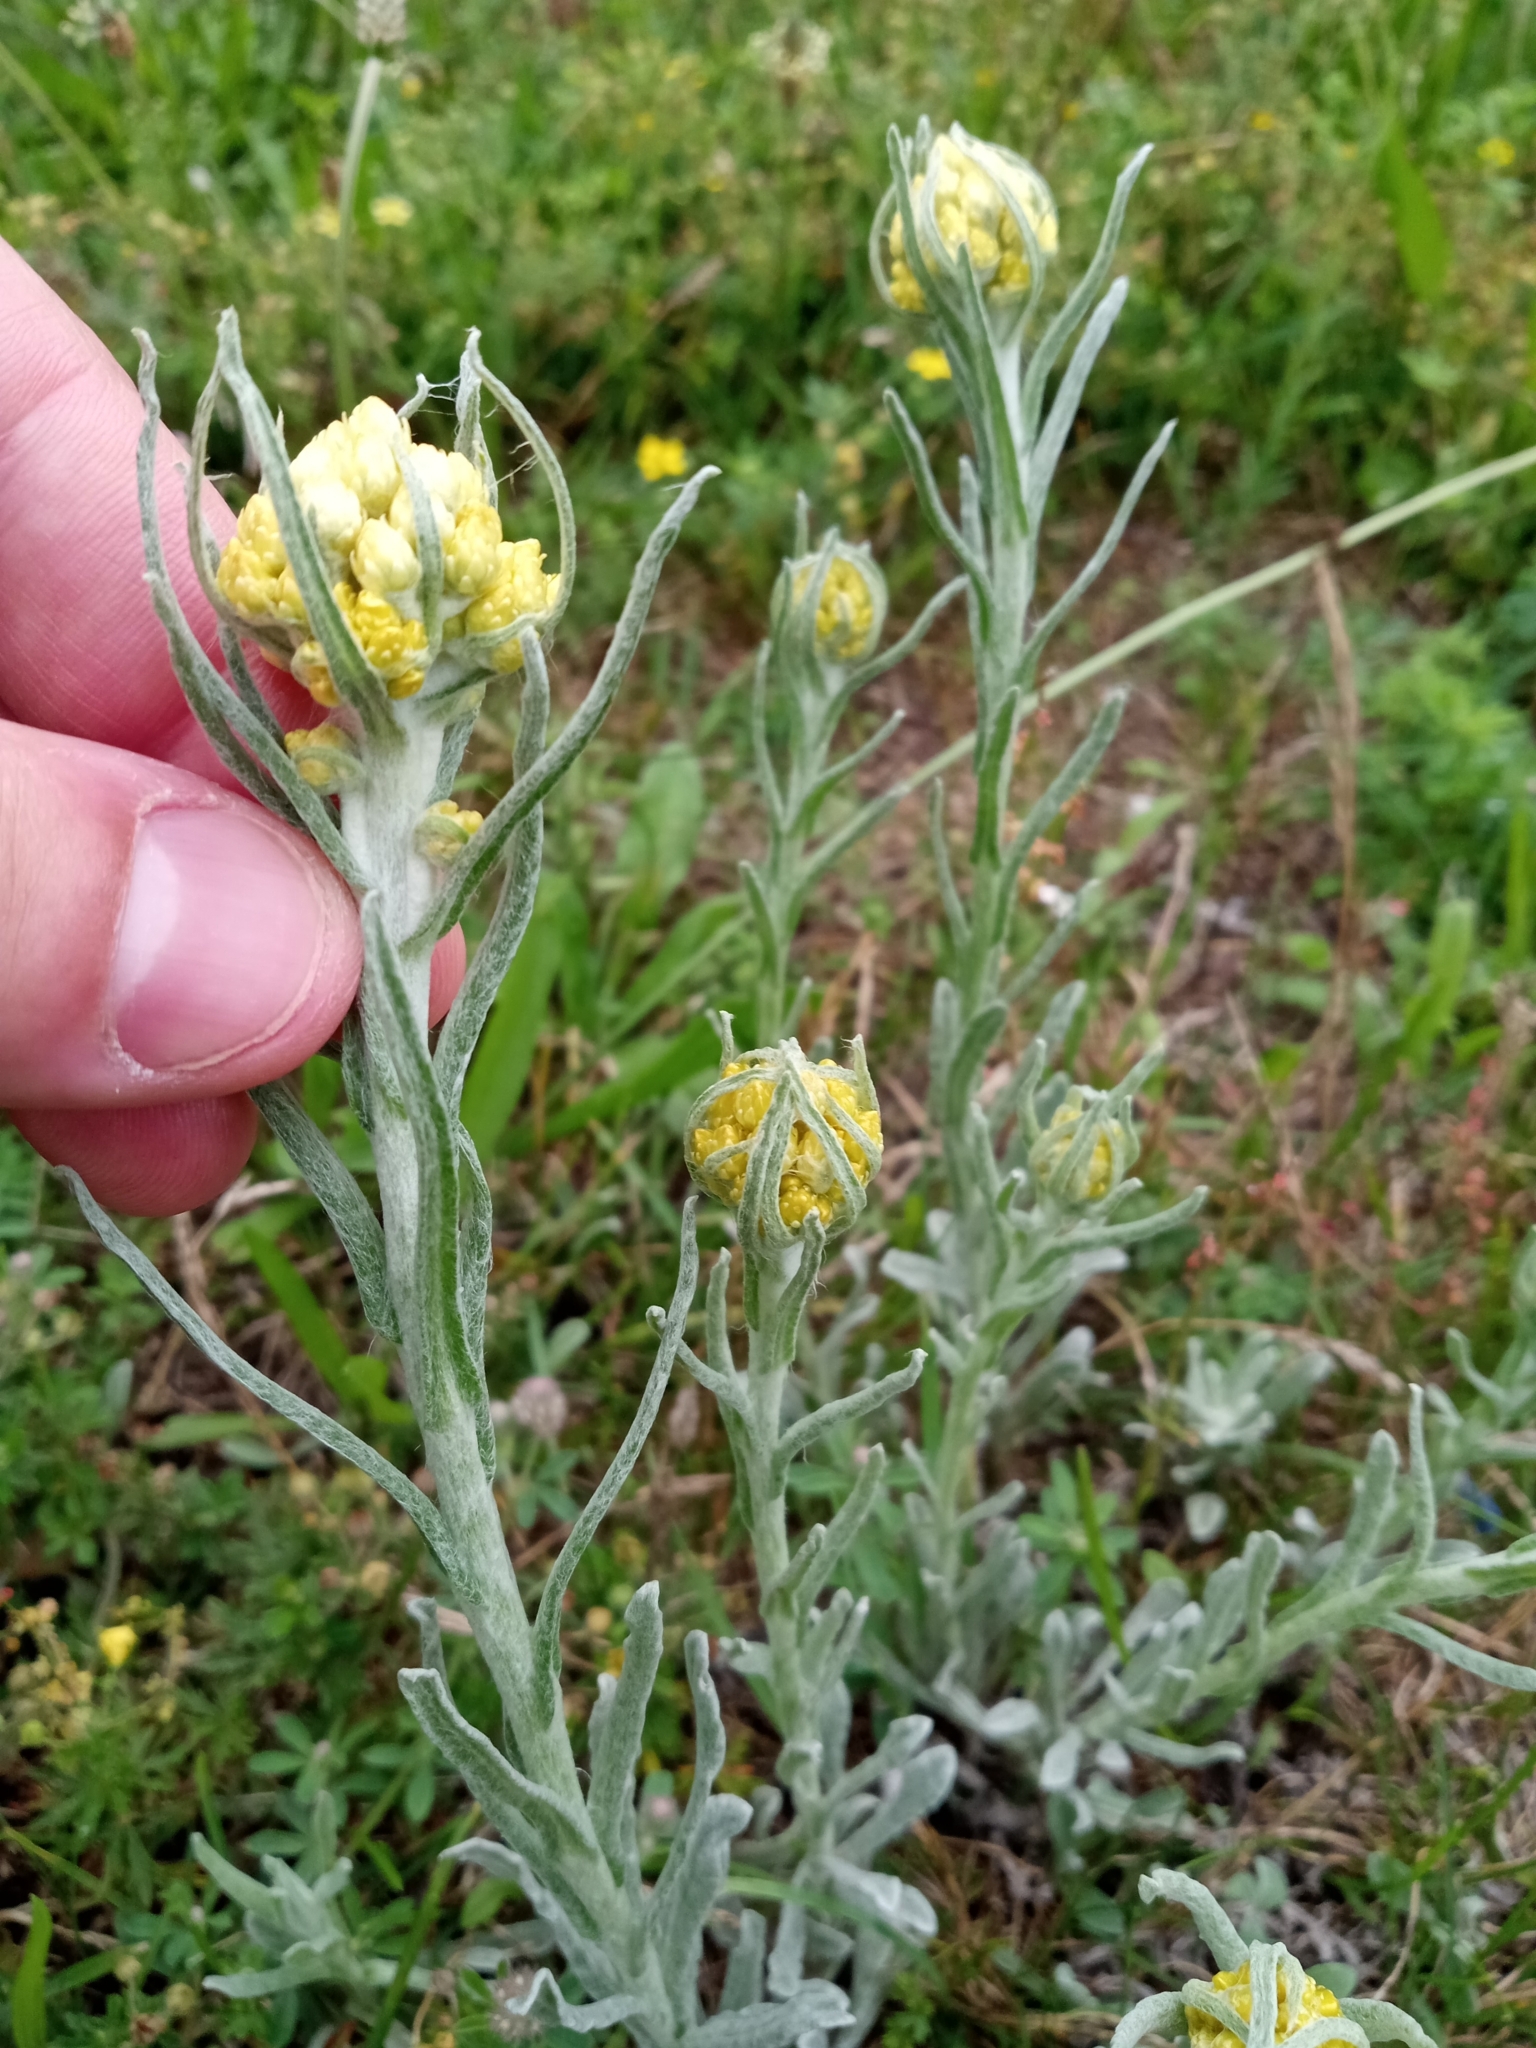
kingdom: Plantae
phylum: Tracheophyta
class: Magnoliopsida
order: Asterales
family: Asteraceae
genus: Helichrysum
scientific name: Helichrysum arenarium
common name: Strawflower
